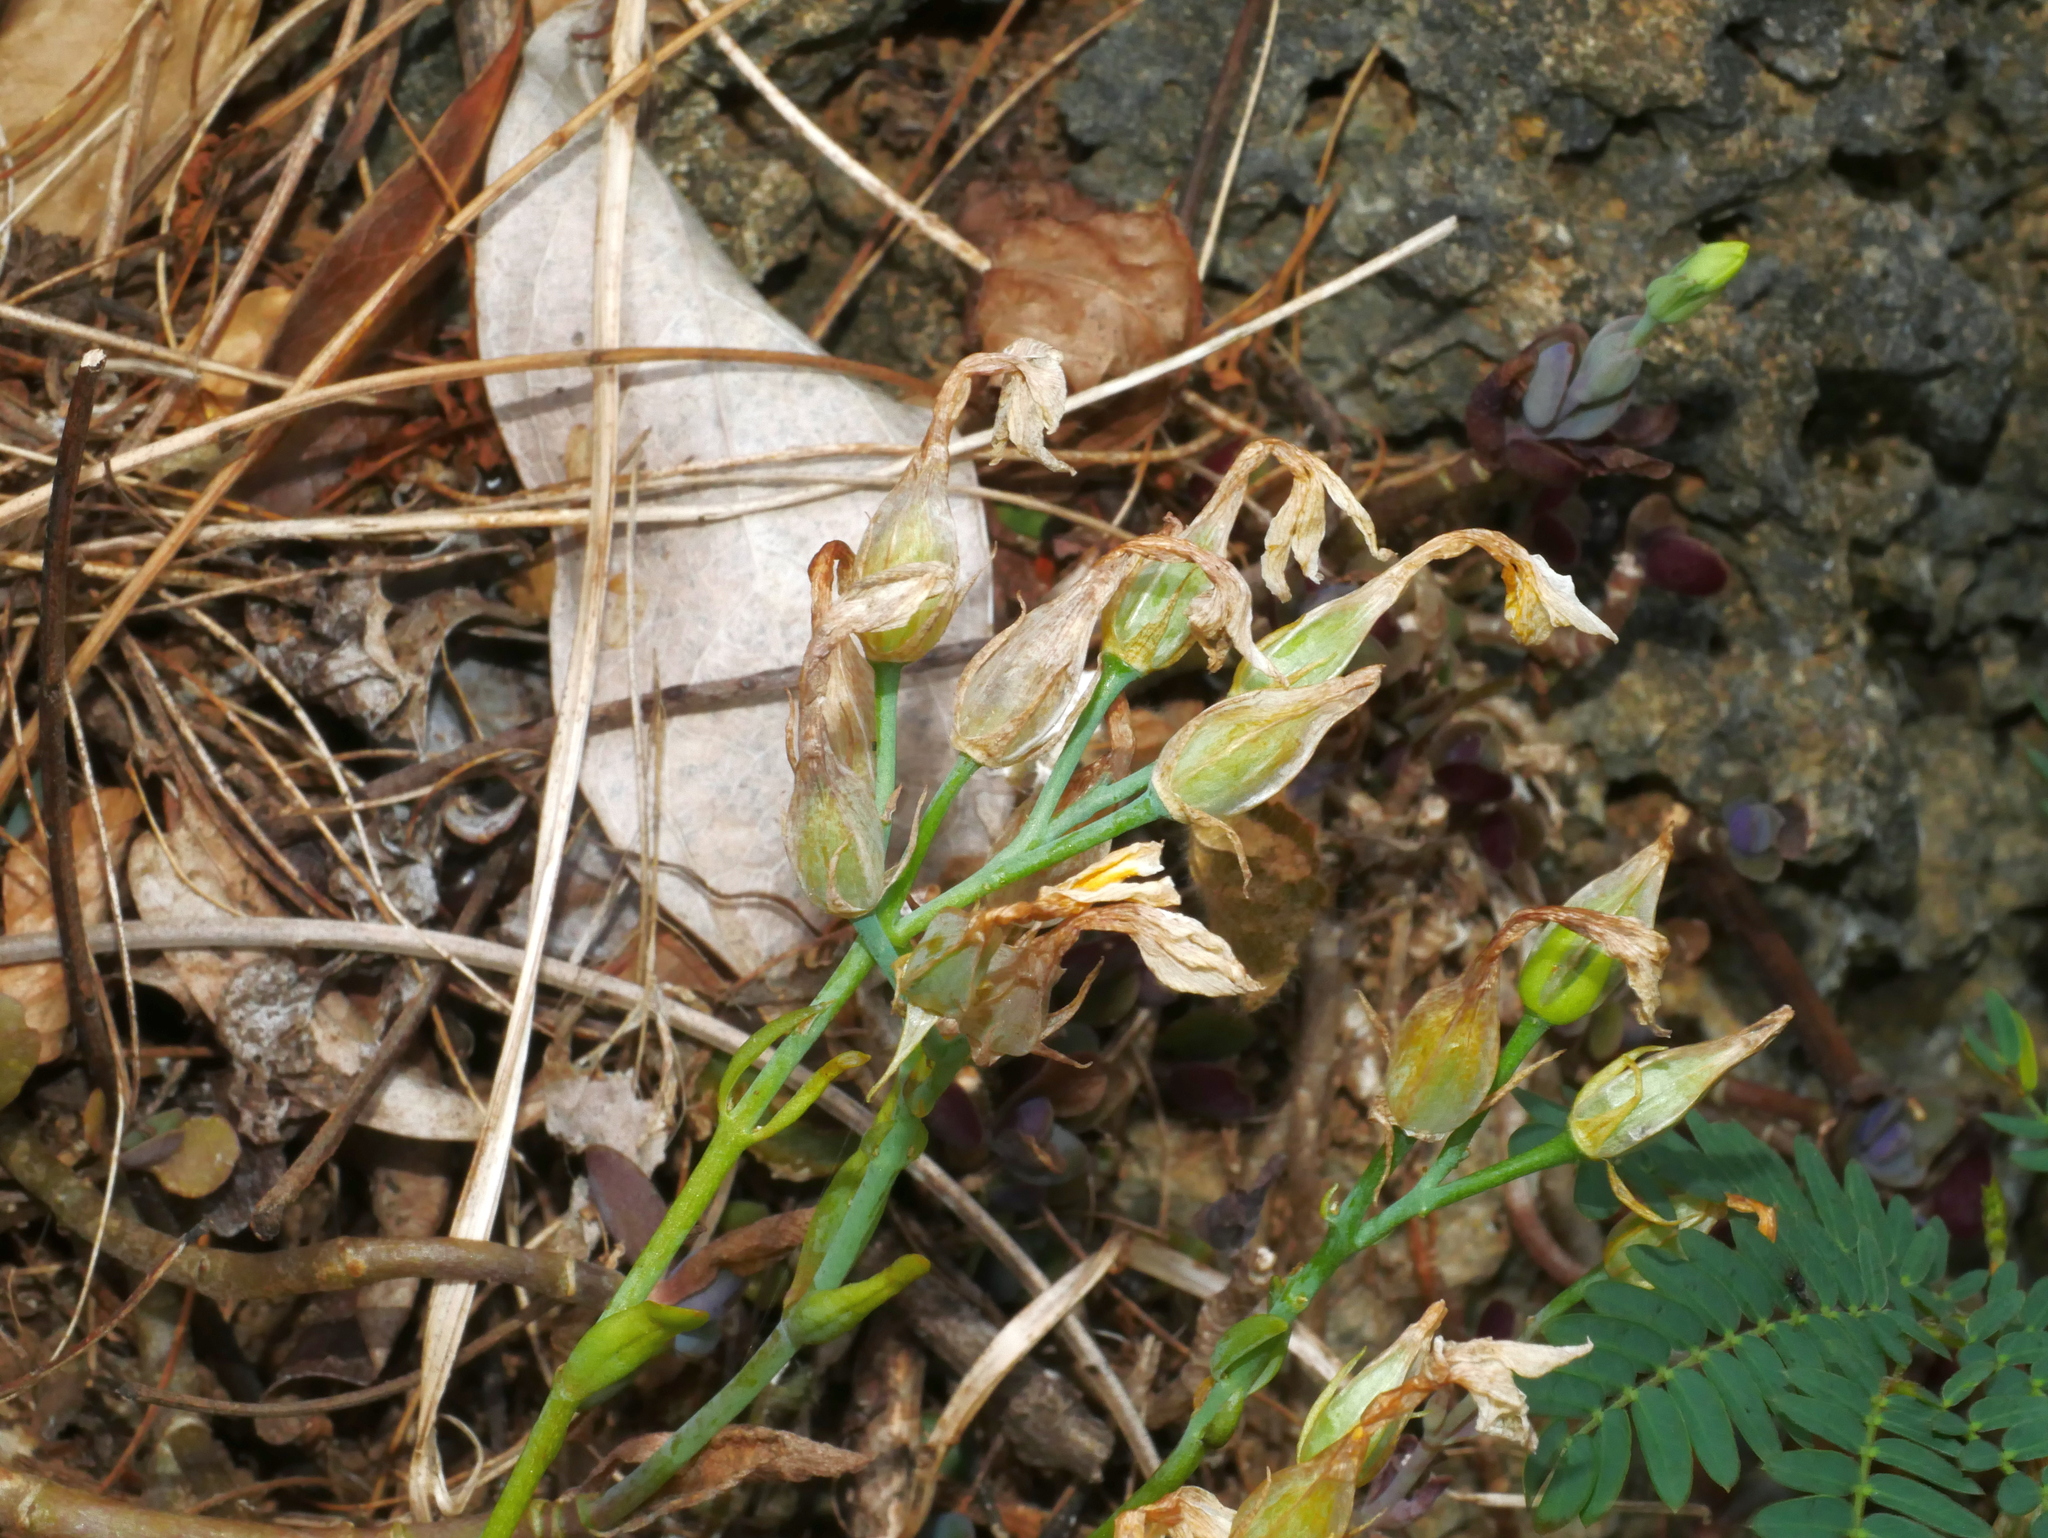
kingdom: Plantae
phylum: Tracheophyta
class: Magnoliopsida
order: Saxifragales
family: Crassulaceae
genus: Kalanchoe
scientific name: Kalanchoe integra
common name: Neverdie
